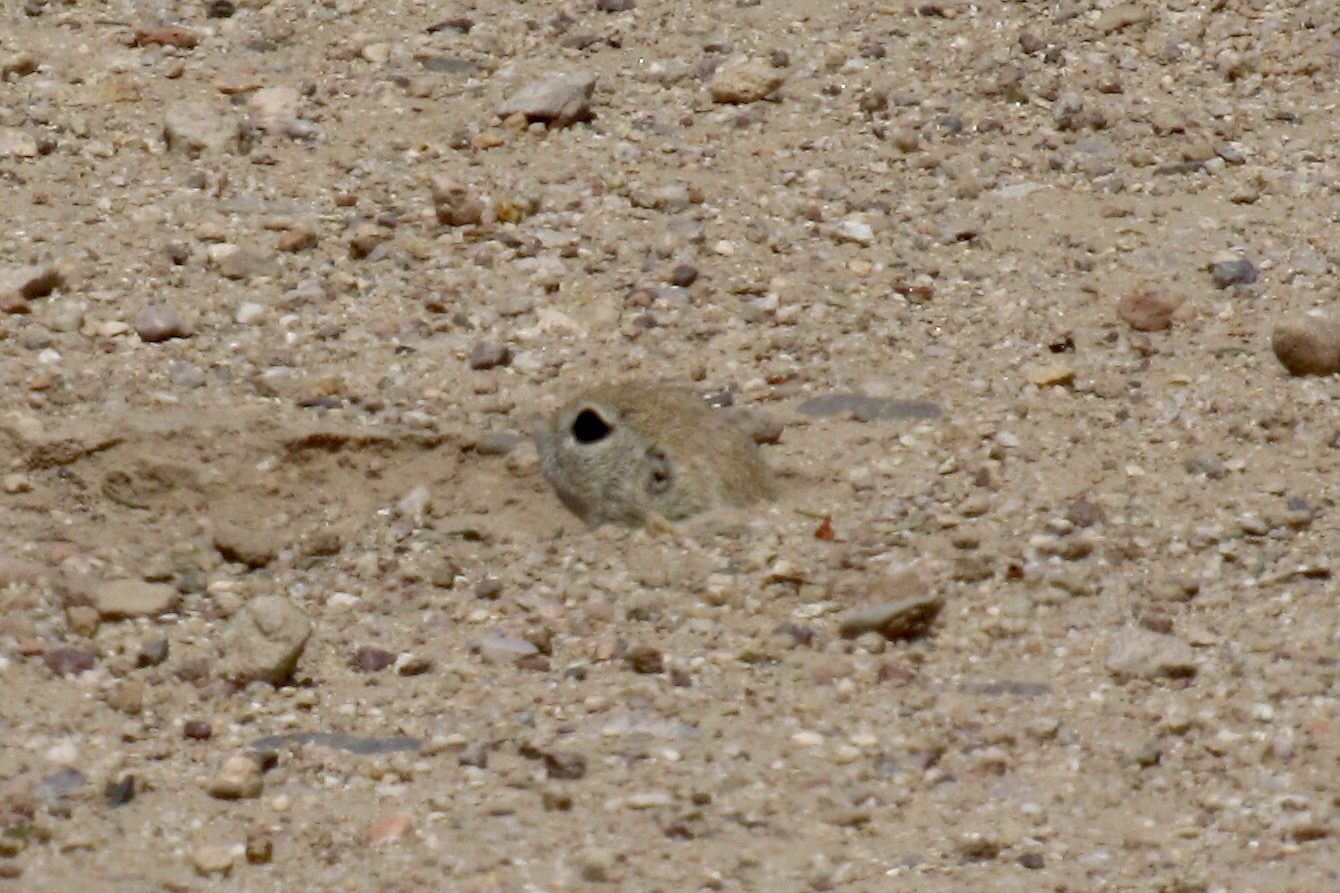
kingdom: Animalia
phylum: Chordata
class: Mammalia
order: Rodentia
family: Sciuridae
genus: Xerospermophilus
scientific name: Xerospermophilus tereticaudus
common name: Round-tailed ground squirrel
